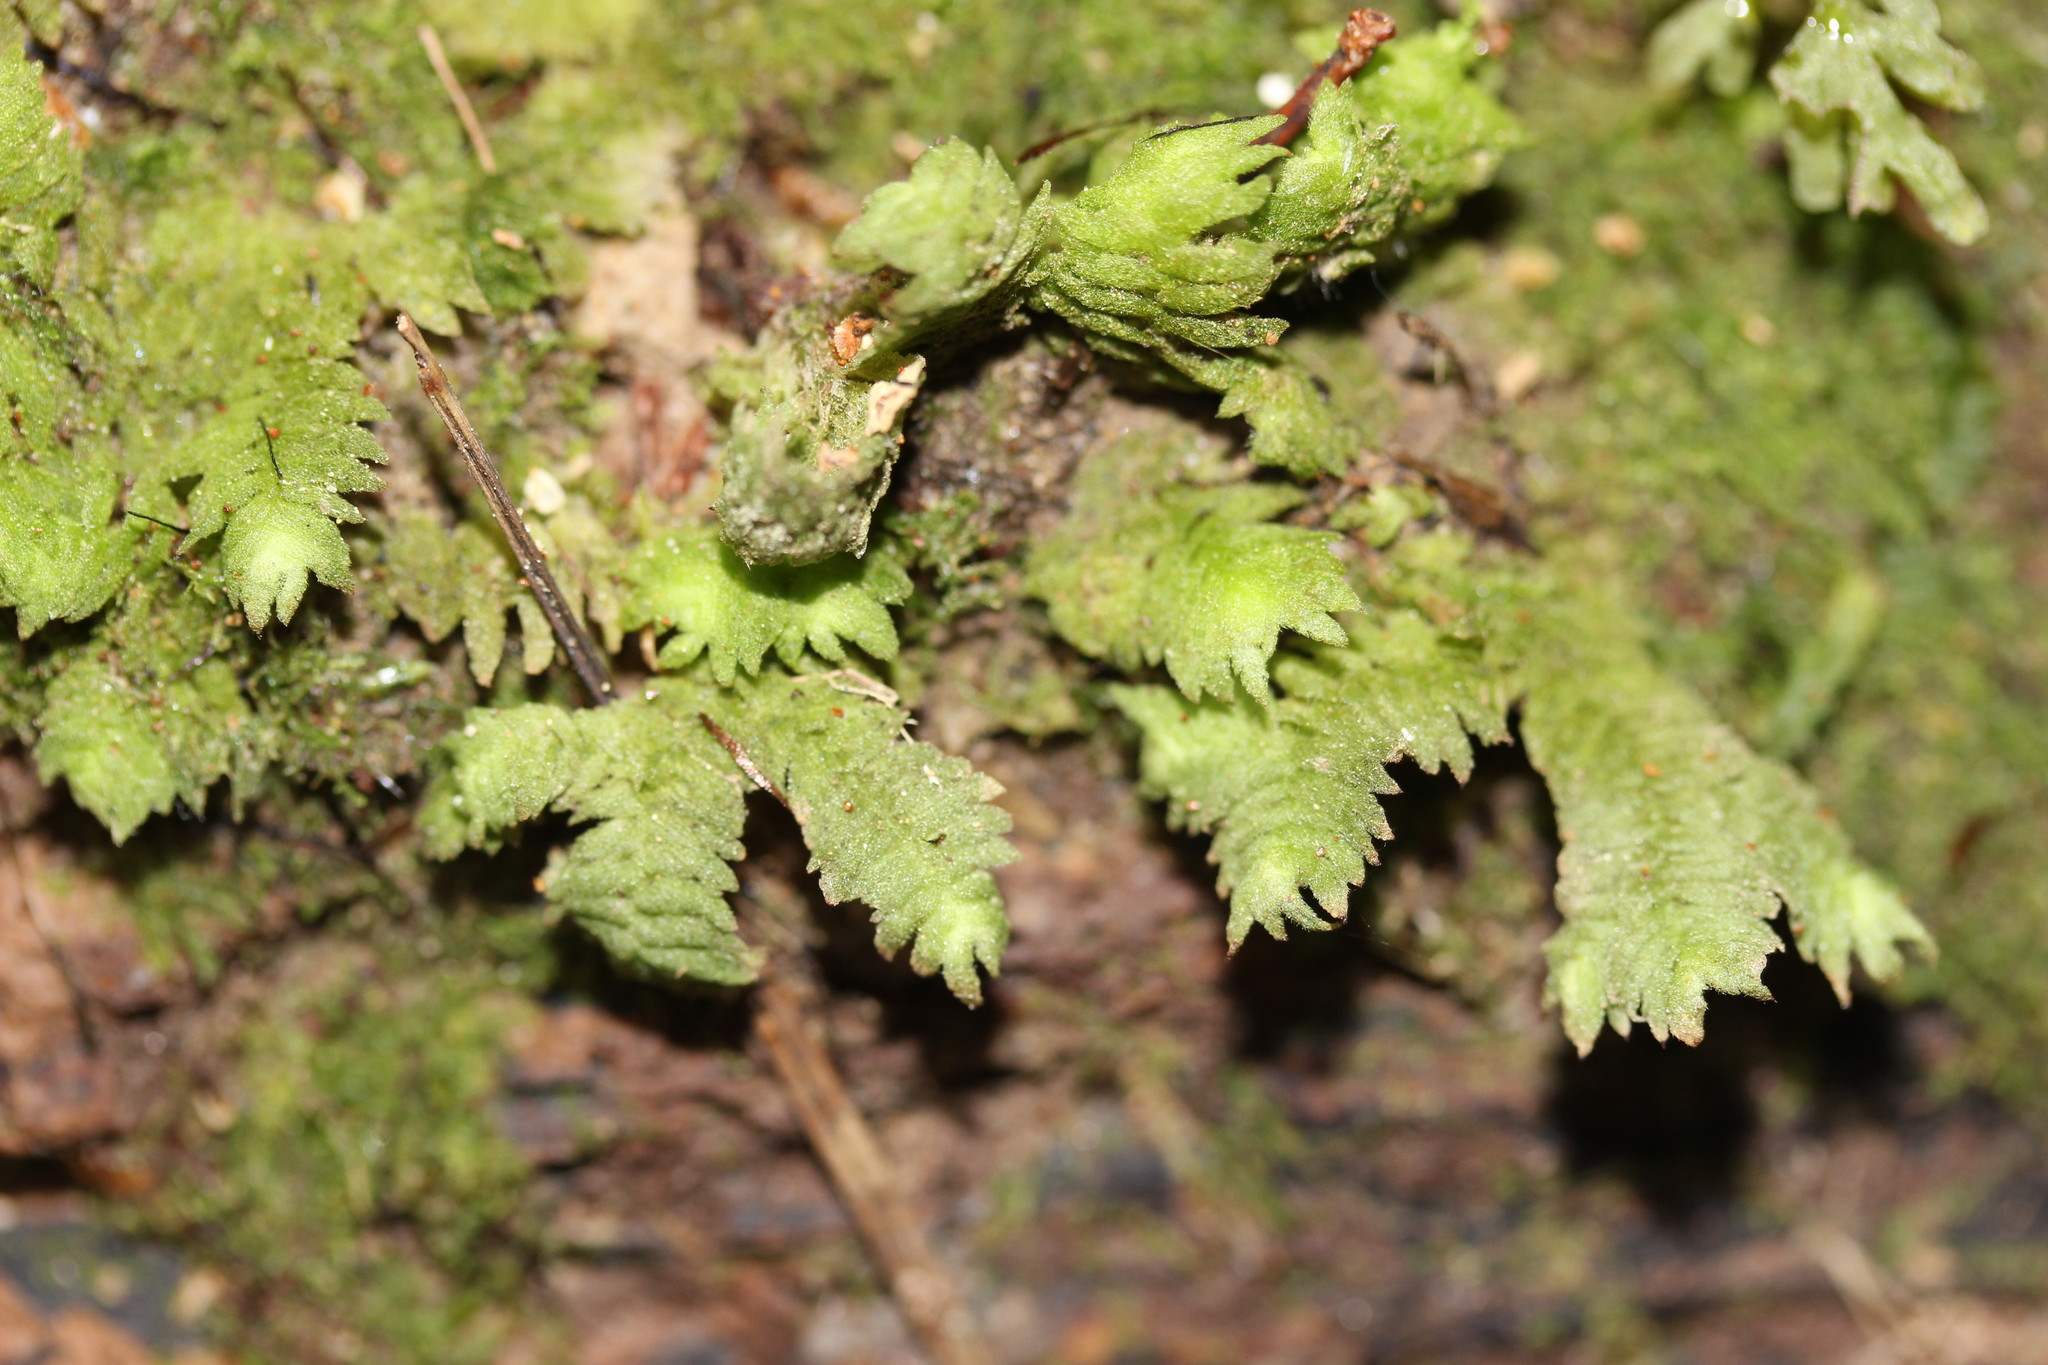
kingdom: Plantae
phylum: Marchantiophyta
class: Jungermanniopsida
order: Jungermanniales
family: Schistochilaceae
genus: Schistochila
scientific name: Schistochila glaucescens
